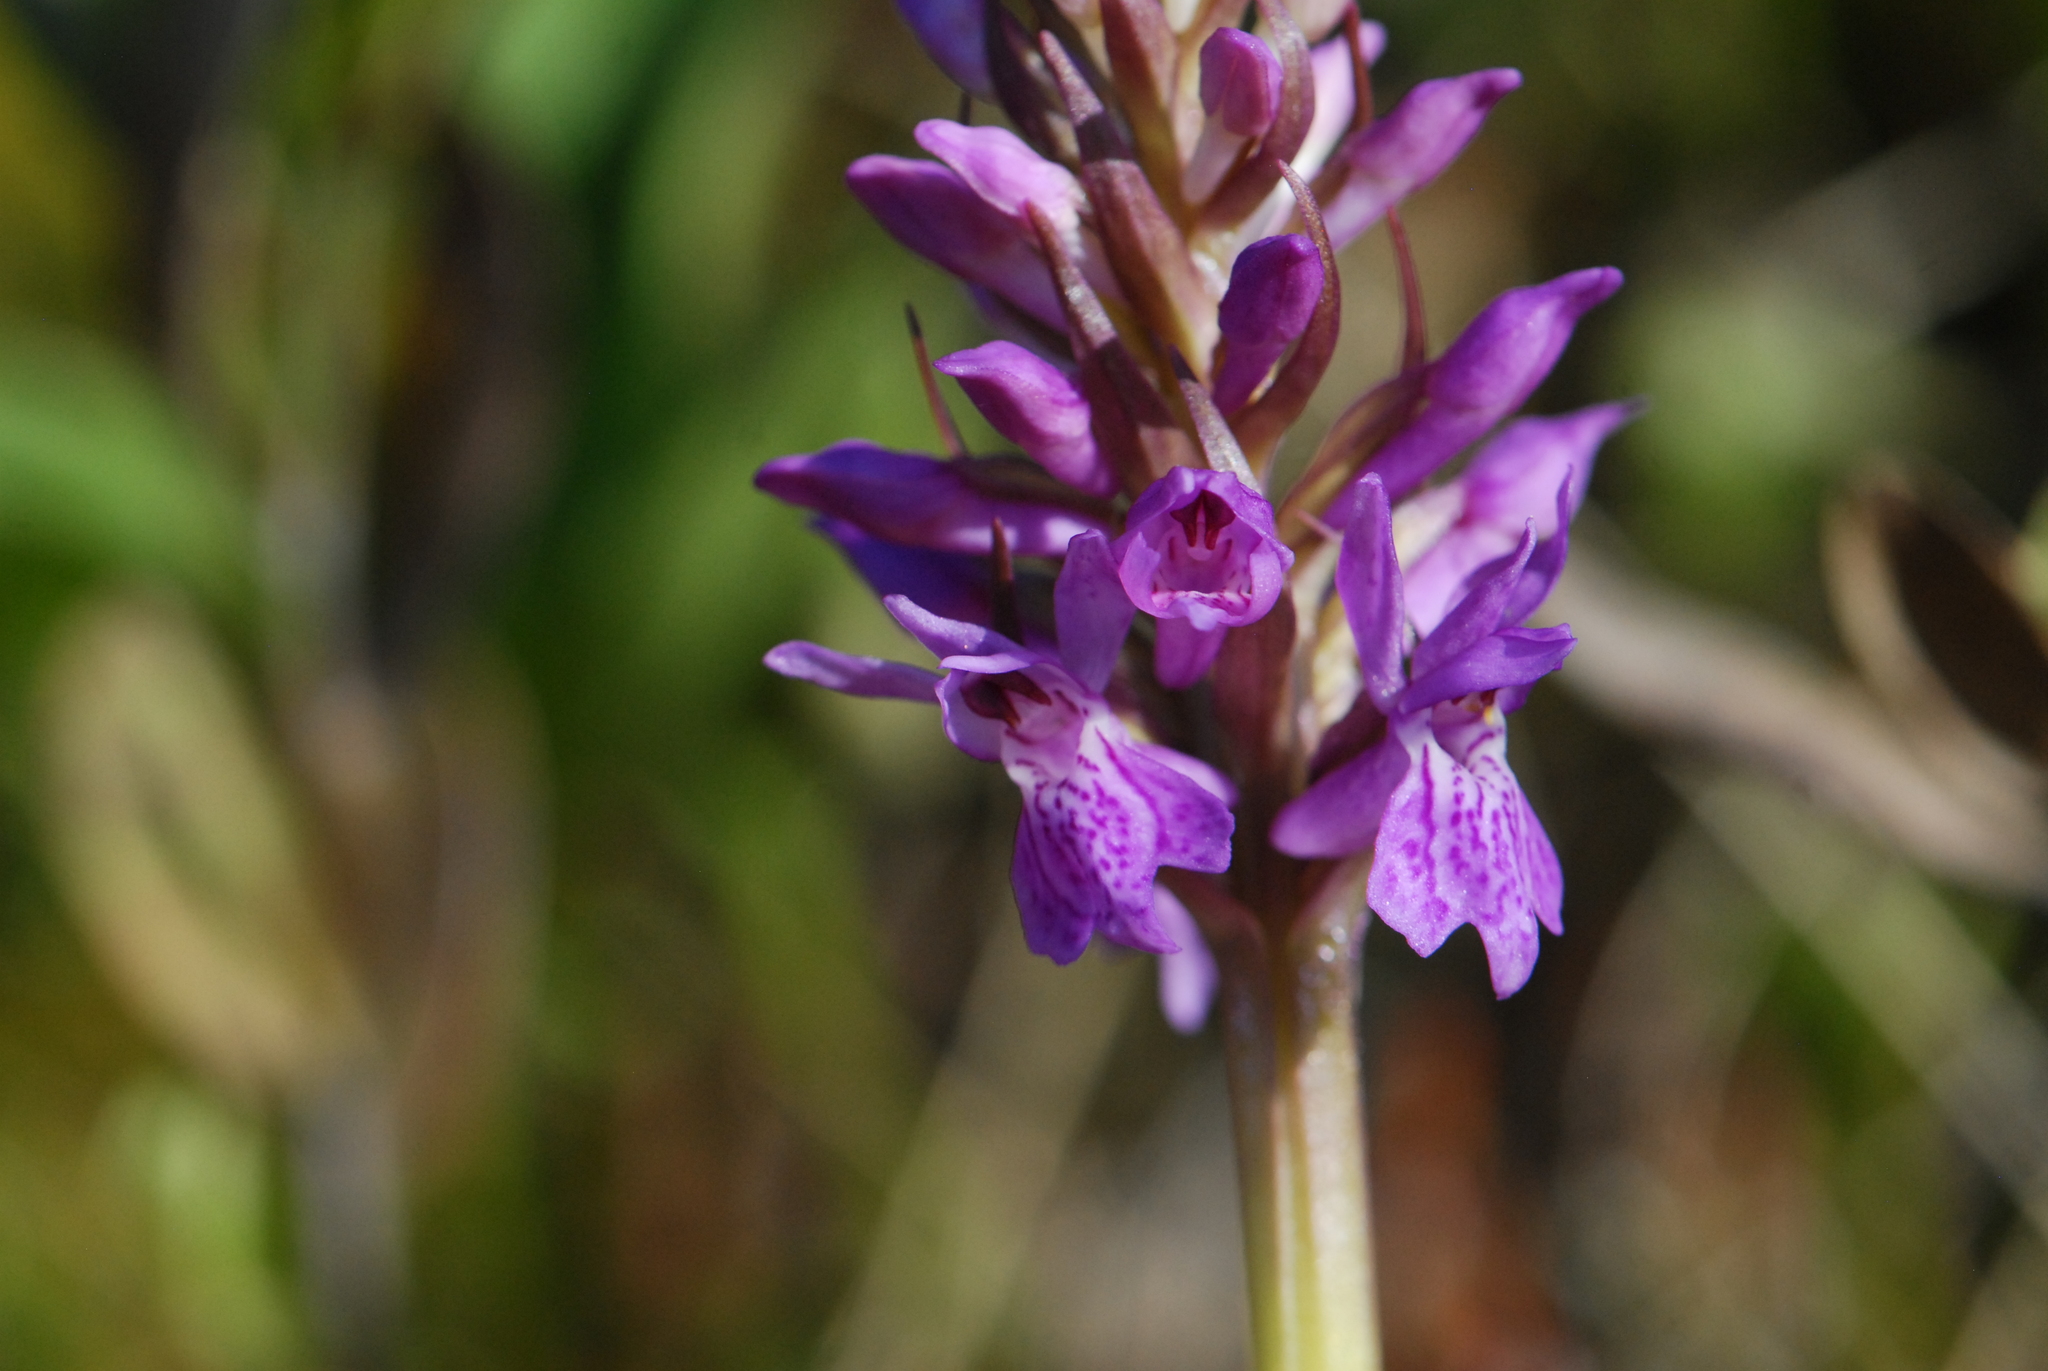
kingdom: Plantae
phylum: Tracheophyta
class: Liliopsida
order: Asparagales
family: Orchidaceae
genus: Dactylorhiza
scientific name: Dactylorhiza incarnata
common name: Early marsh-orchid
